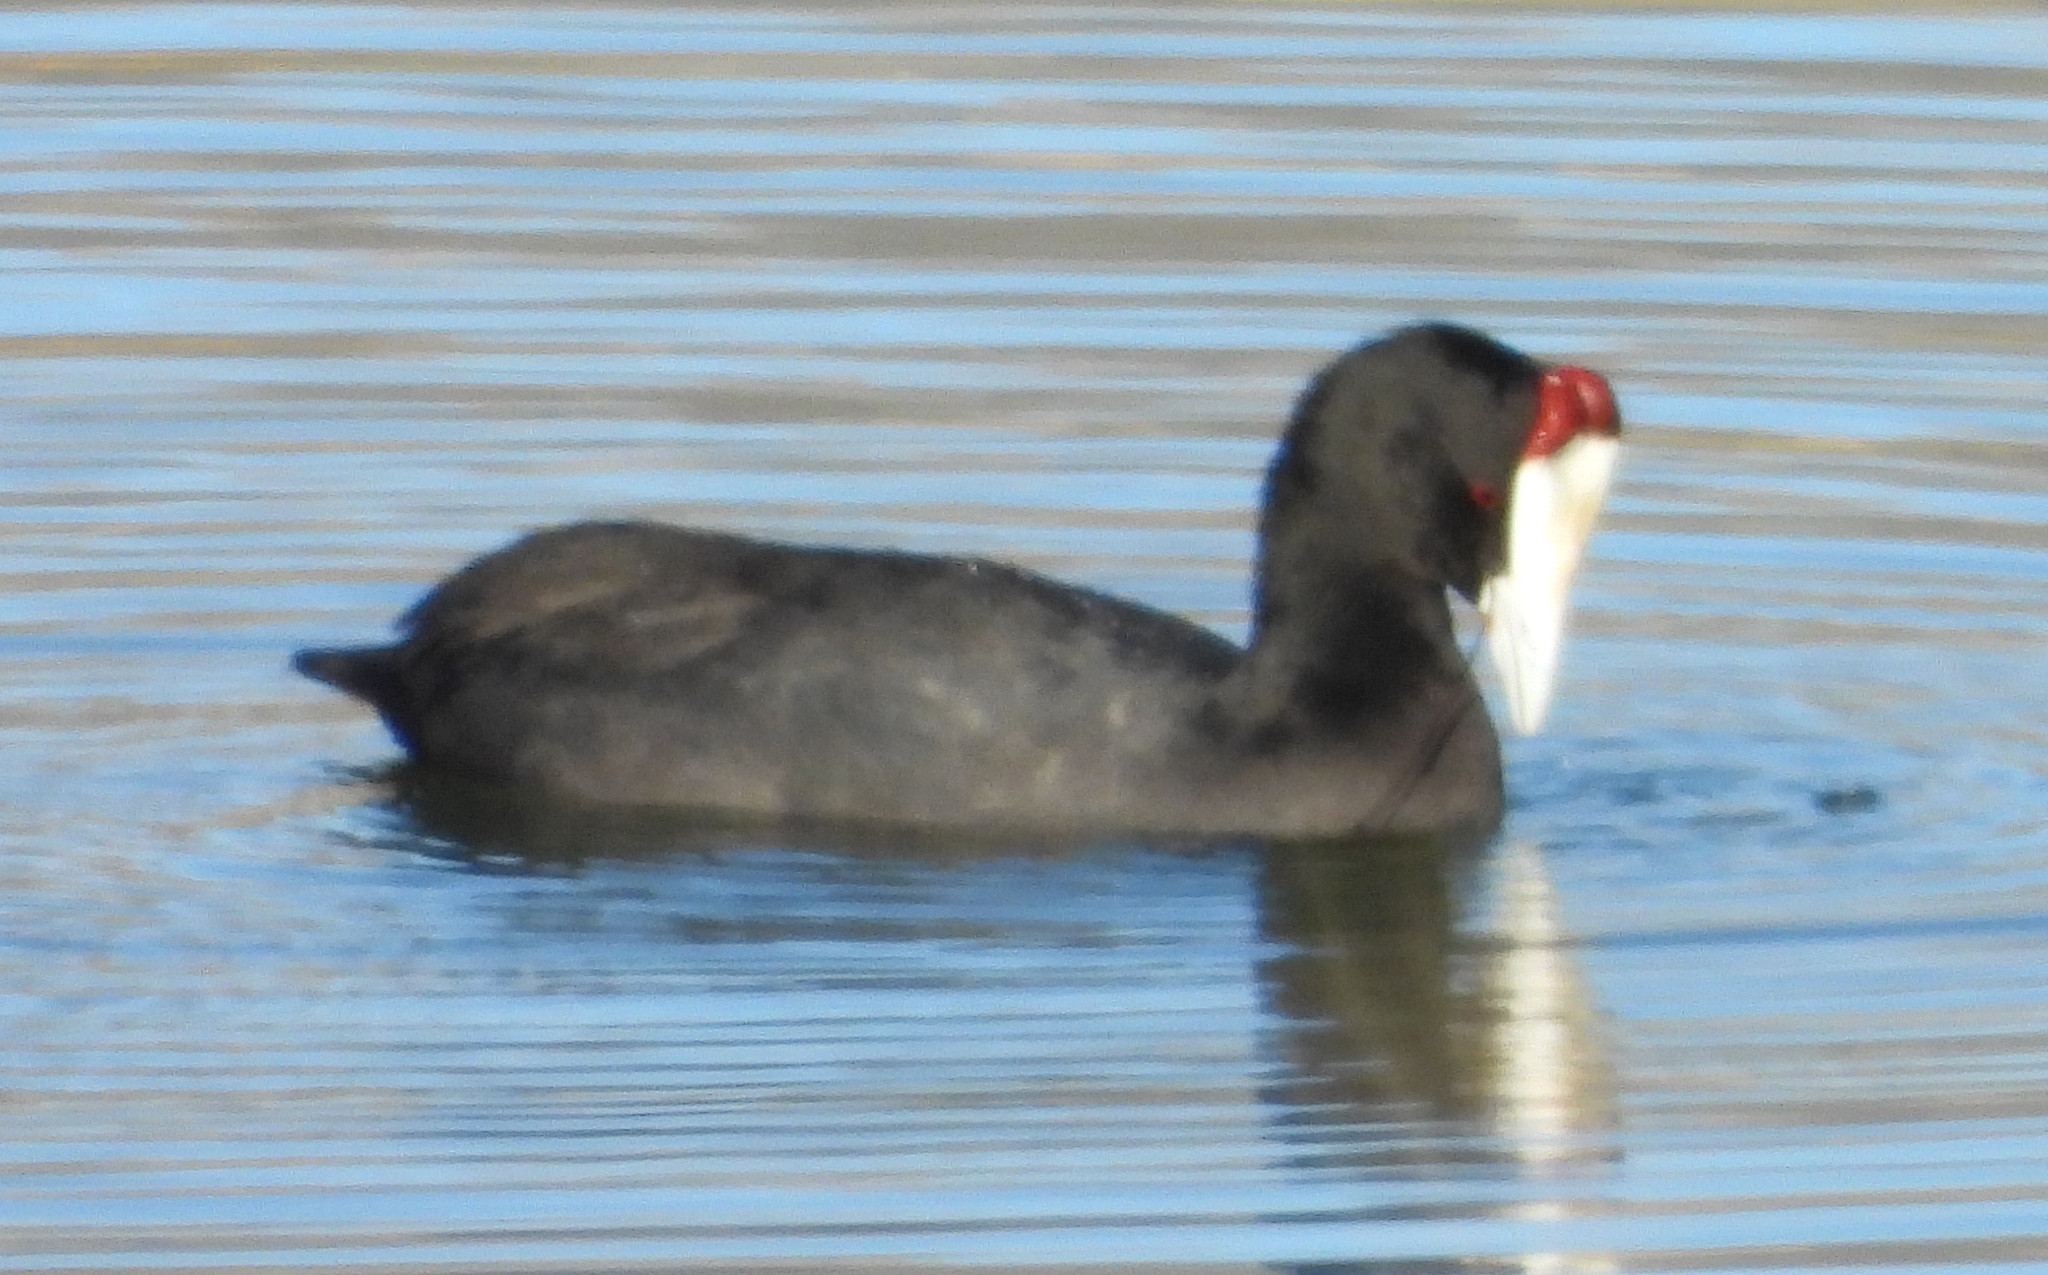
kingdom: Animalia
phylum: Chordata
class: Aves
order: Gruiformes
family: Rallidae
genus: Fulica
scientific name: Fulica cristata
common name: Red-knobbed coot
